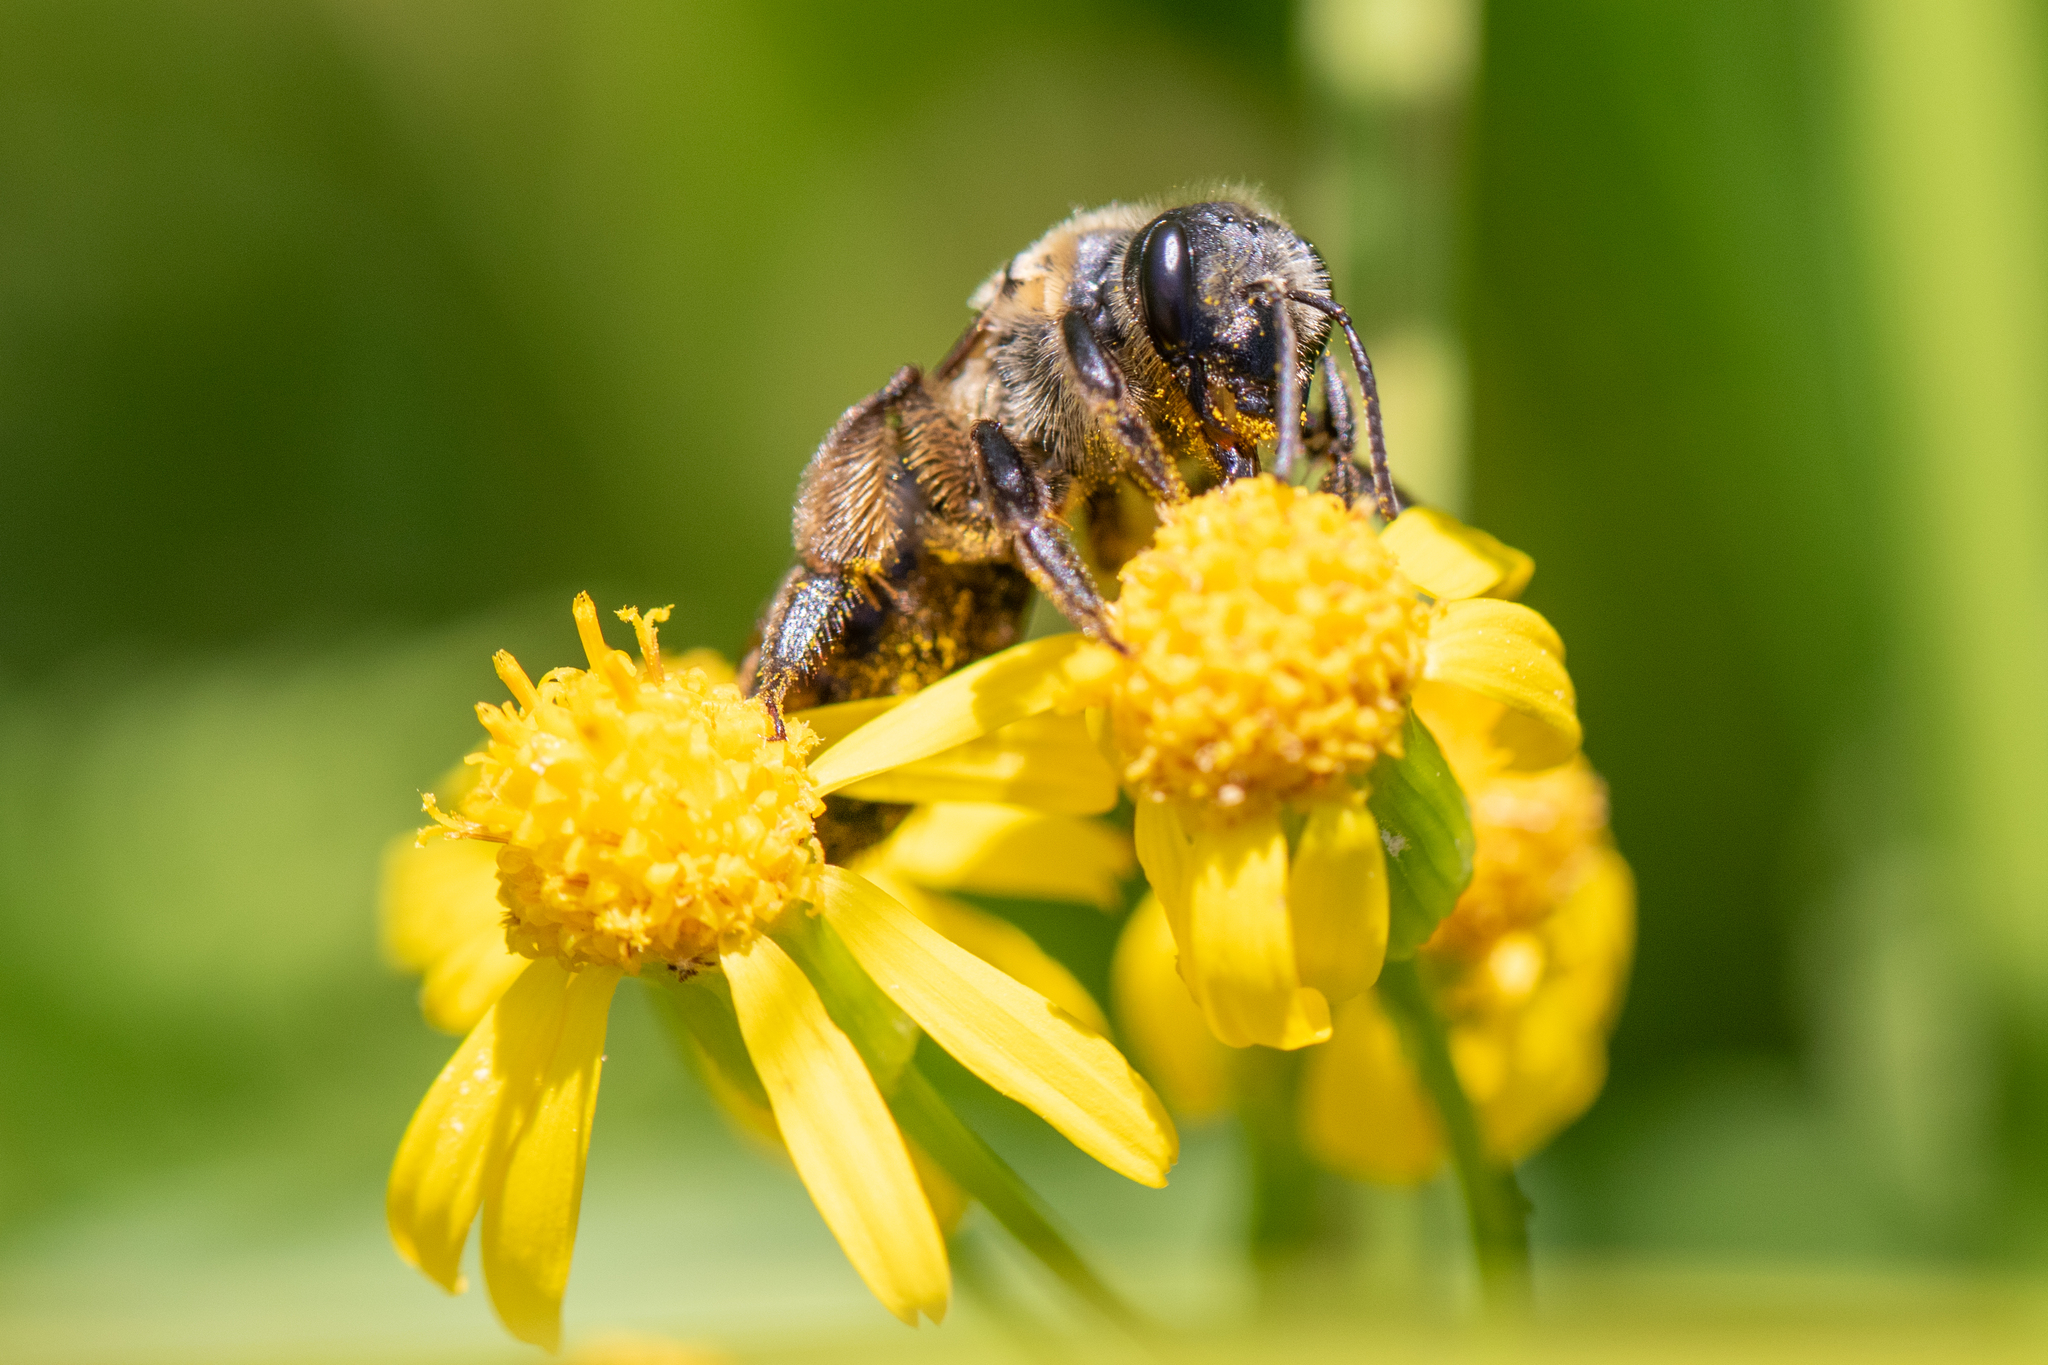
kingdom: Animalia
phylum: Arthropoda
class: Insecta
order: Hymenoptera
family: Andrenidae
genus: Andrena
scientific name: Andrena nivalis
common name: Snowy mining bee
